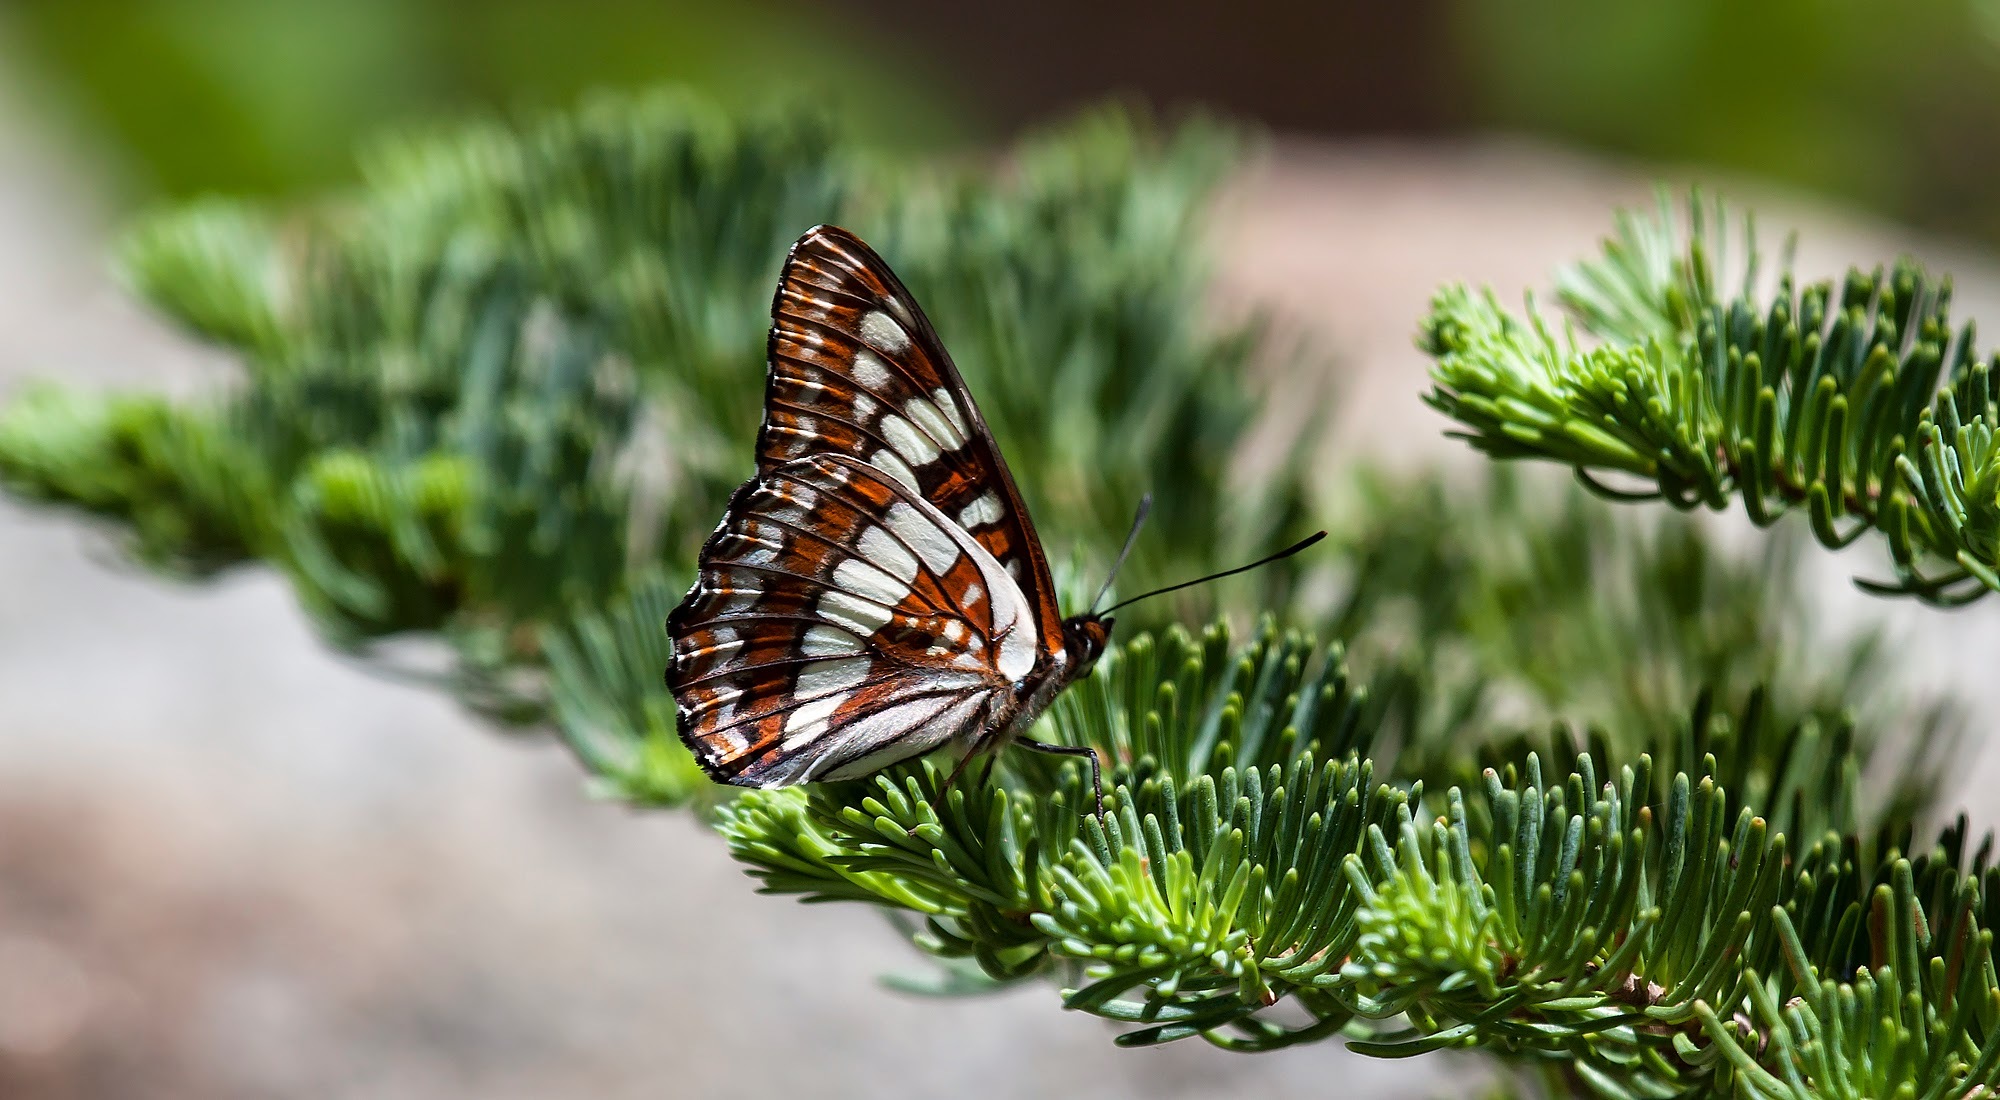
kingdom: Animalia
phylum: Arthropoda
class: Insecta
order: Lepidoptera
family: Nymphalidae
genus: Limenitis
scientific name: Limenitis lorquini
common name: Lorquin's admiral
